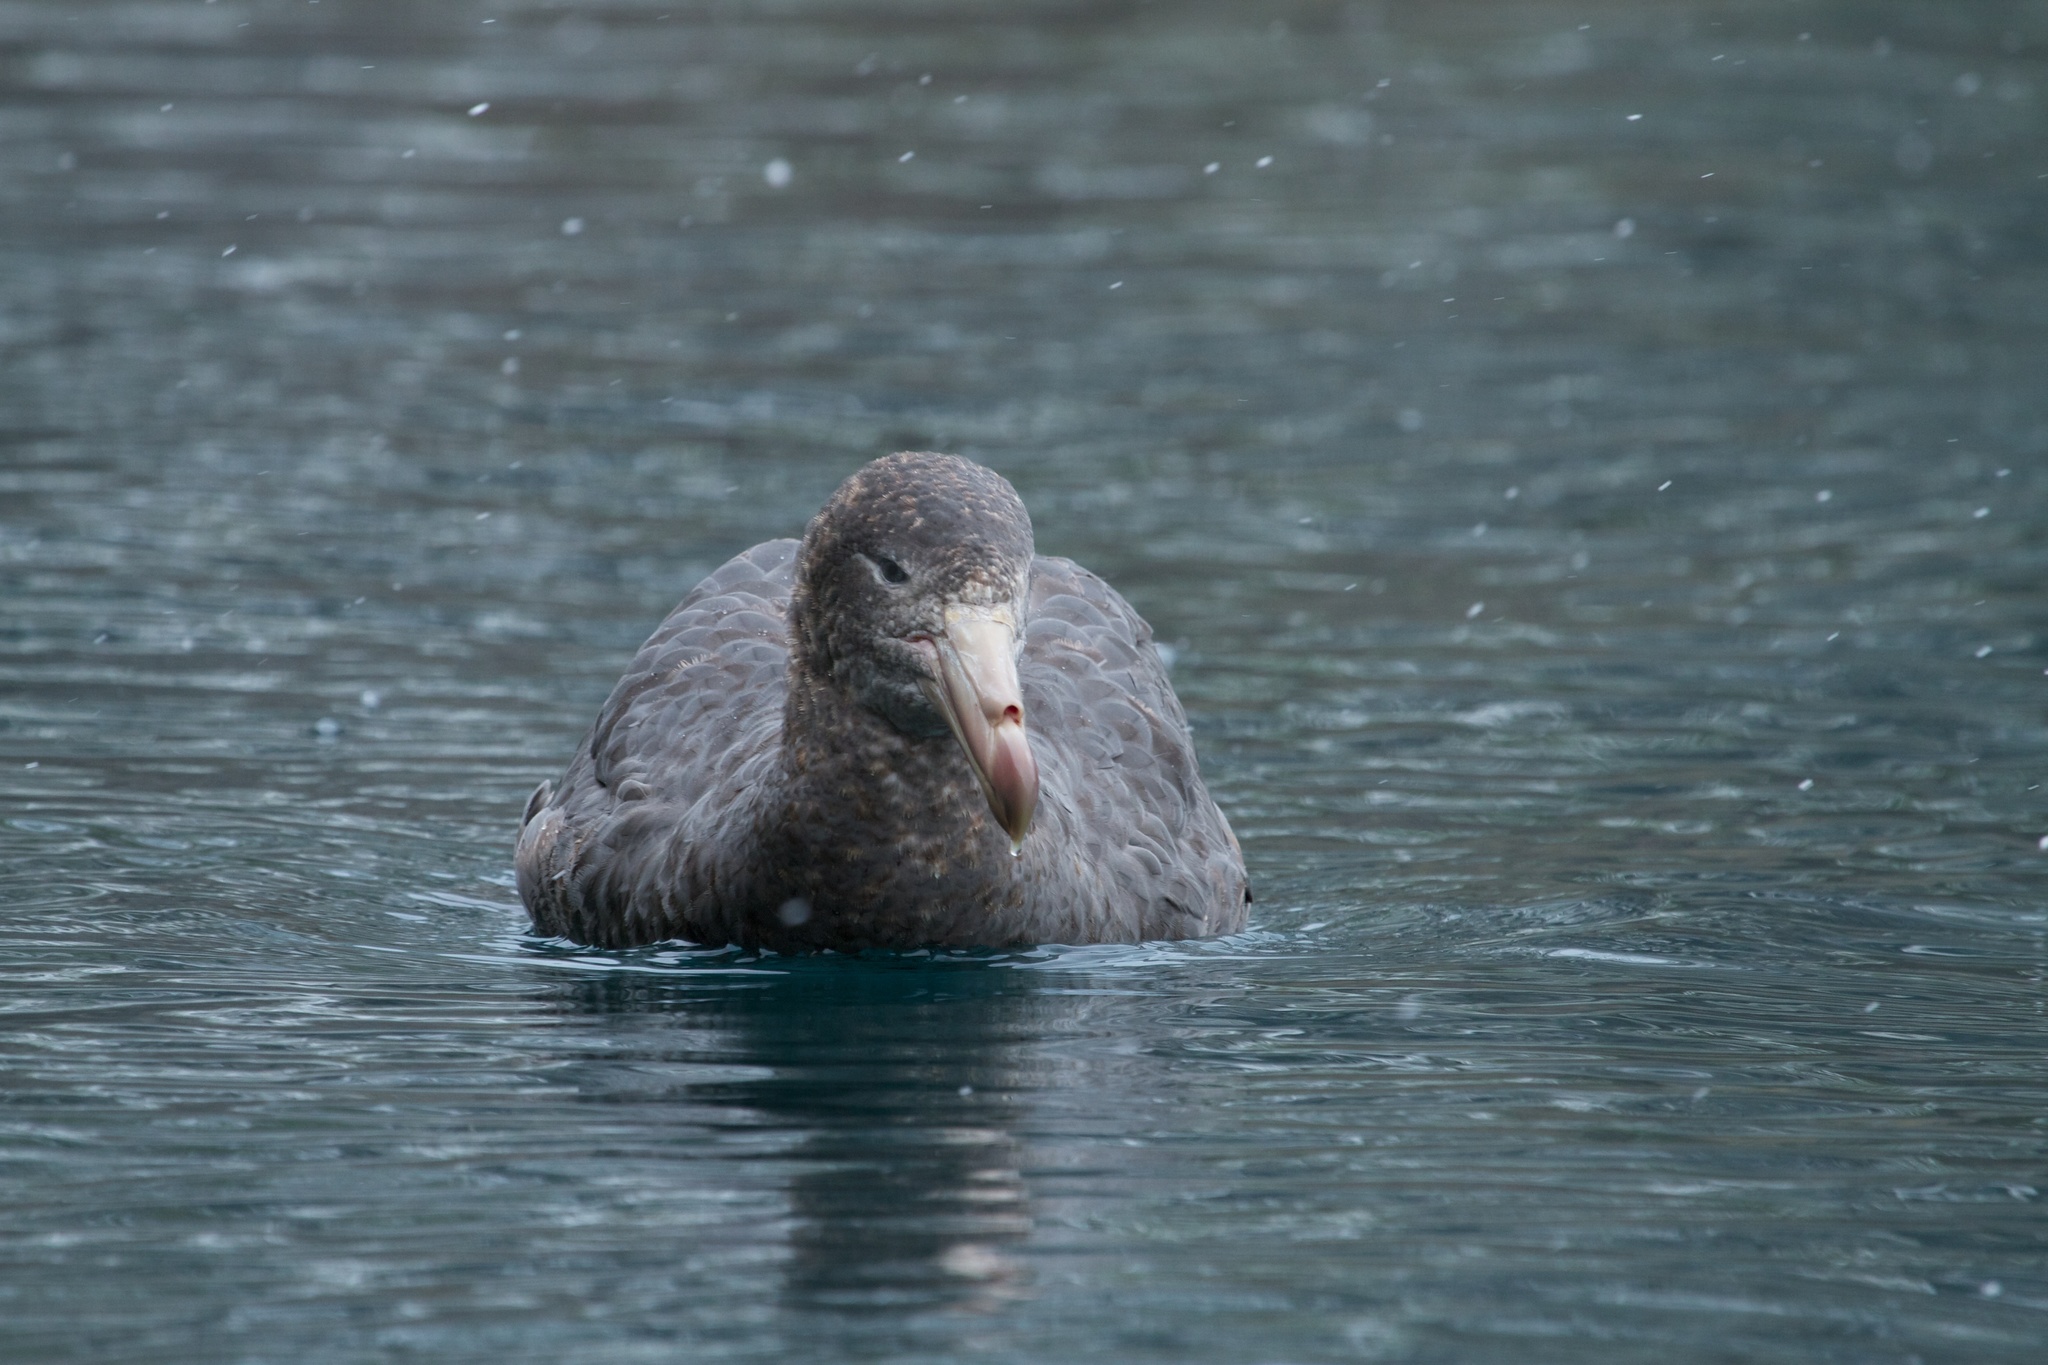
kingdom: Animalia
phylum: Chordata
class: Aves
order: Procellariiformes
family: Procellariidae
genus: Macronectes
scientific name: Macronectes halli
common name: Northern giant petrel
